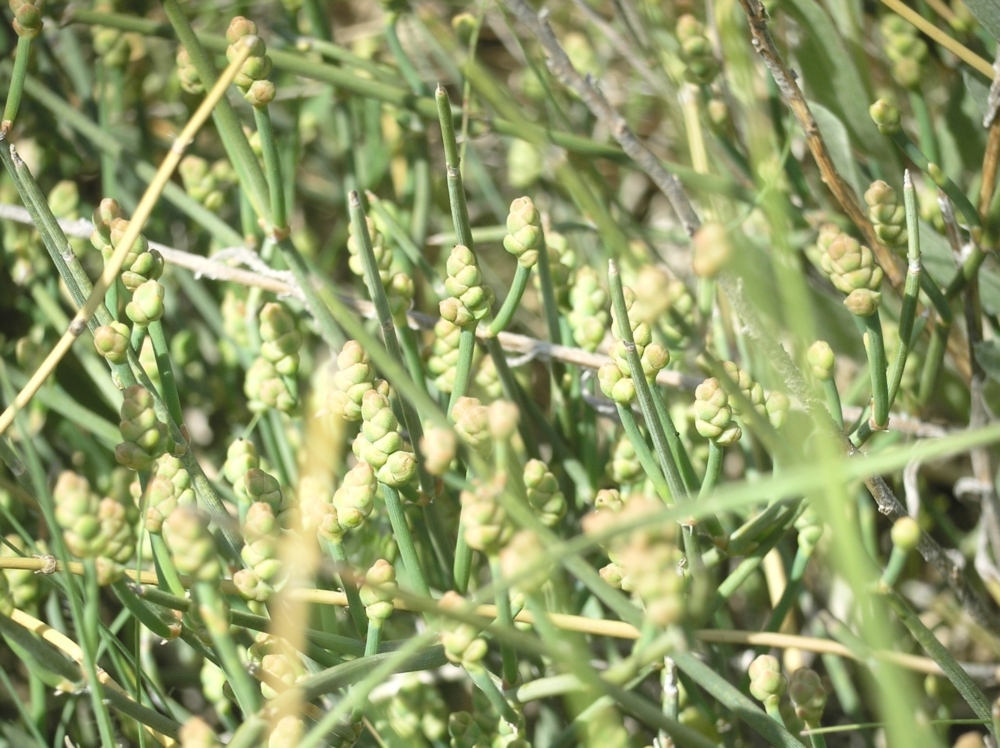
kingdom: Plantae
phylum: Tracheophyta
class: Gnetopsida
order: Ephedrales
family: Ephedraceae
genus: Ephedra
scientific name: Ephedra distachya
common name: Sea grape
